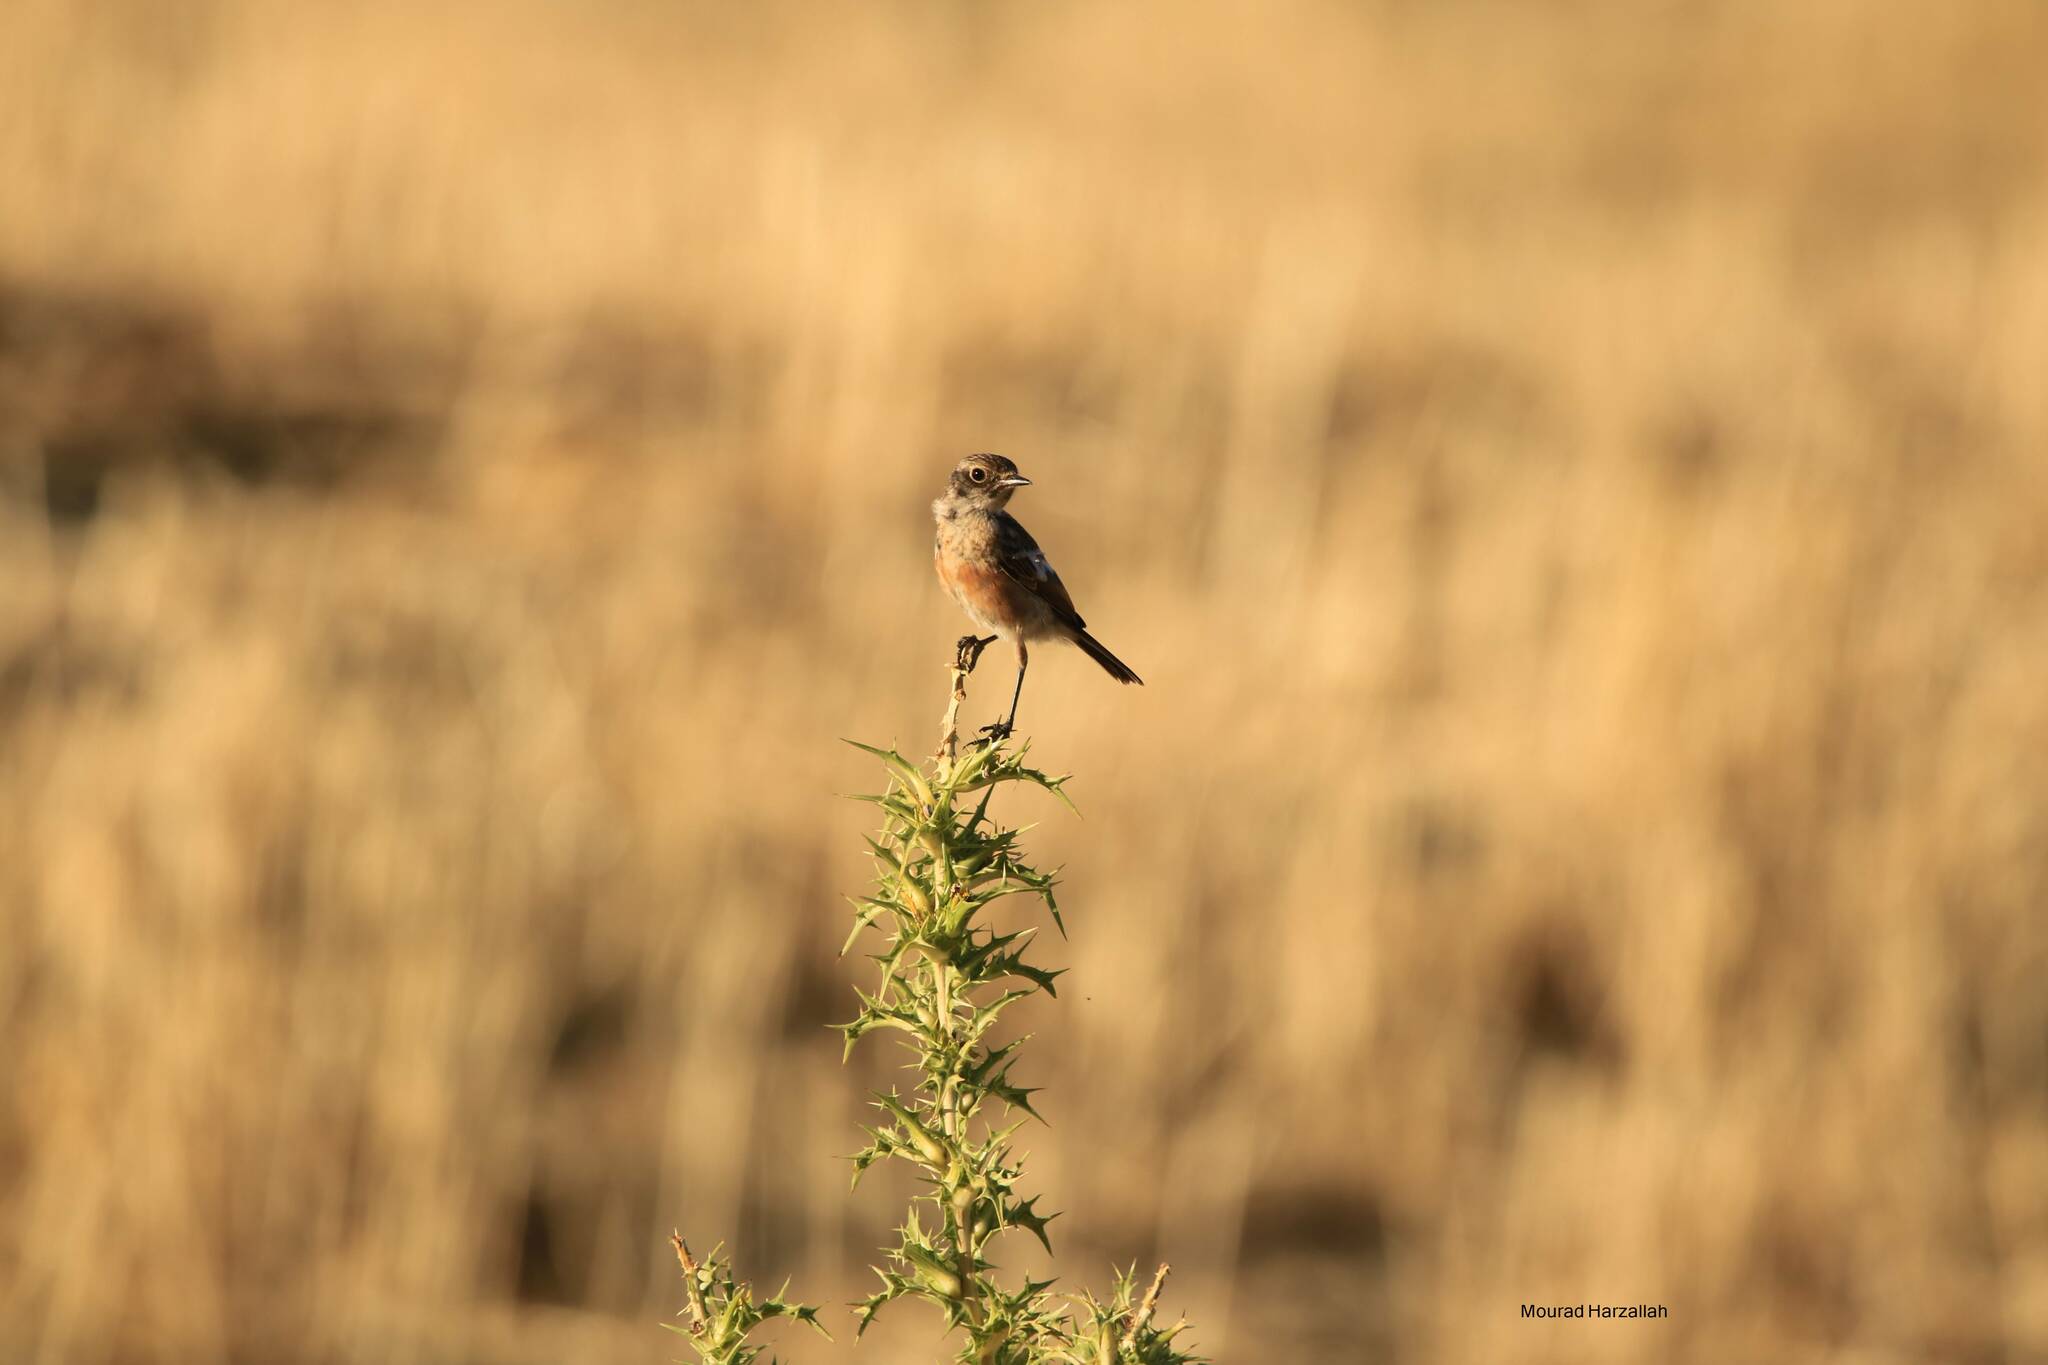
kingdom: Animalia
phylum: Chordata
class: Aves
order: Passeriformes
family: Muscicapidae
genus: Saxicola
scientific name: Saxicola rubicola
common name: European stonechat
